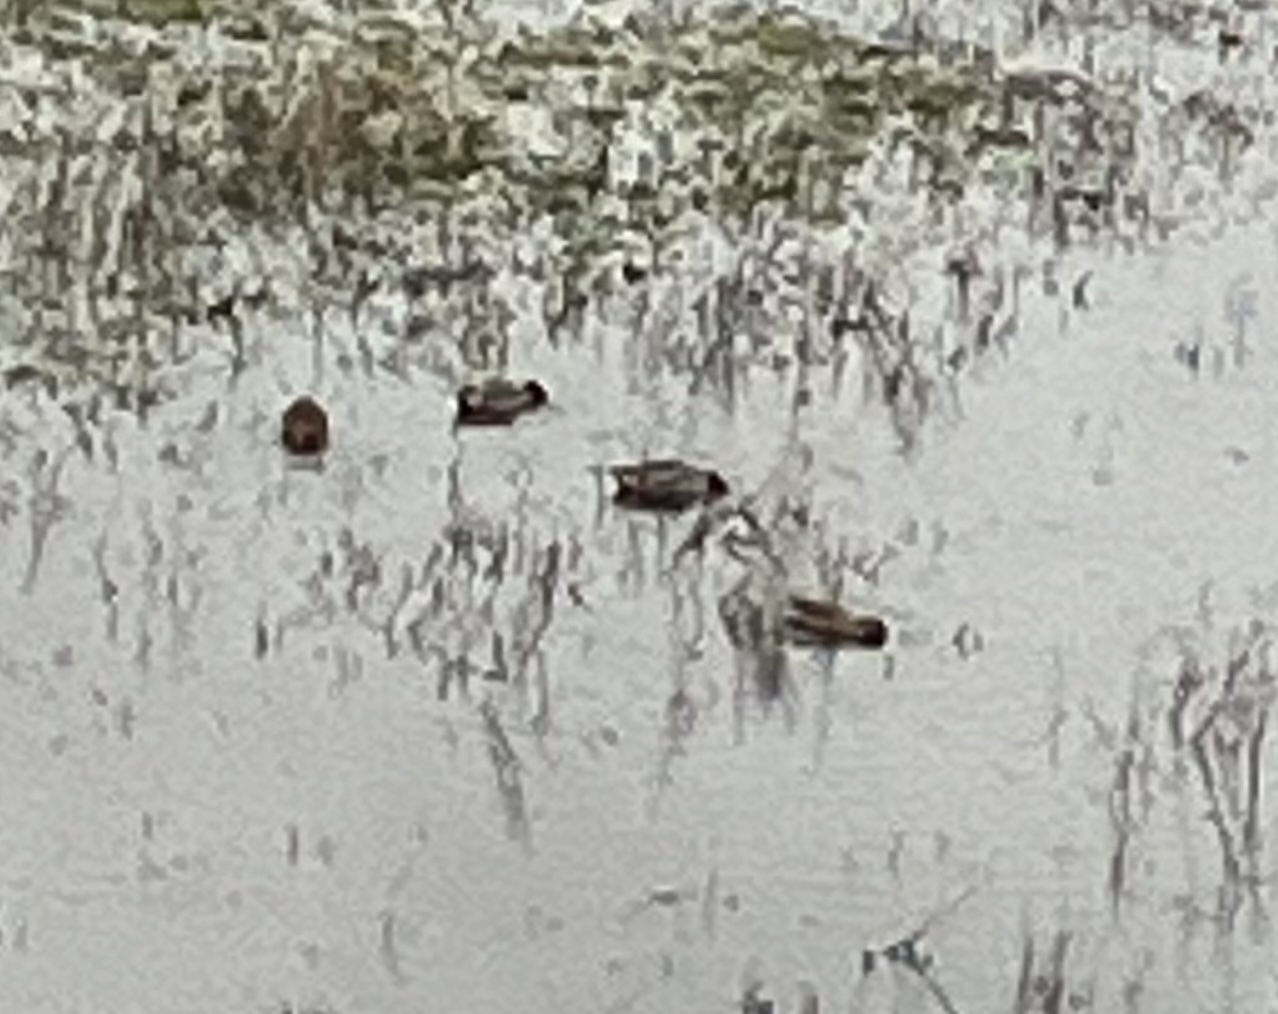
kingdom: Animalia
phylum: Chordata
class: Aves
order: Anseriformes
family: Anatidae
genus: Anas
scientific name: Anas crecca
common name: Eurasian teal
